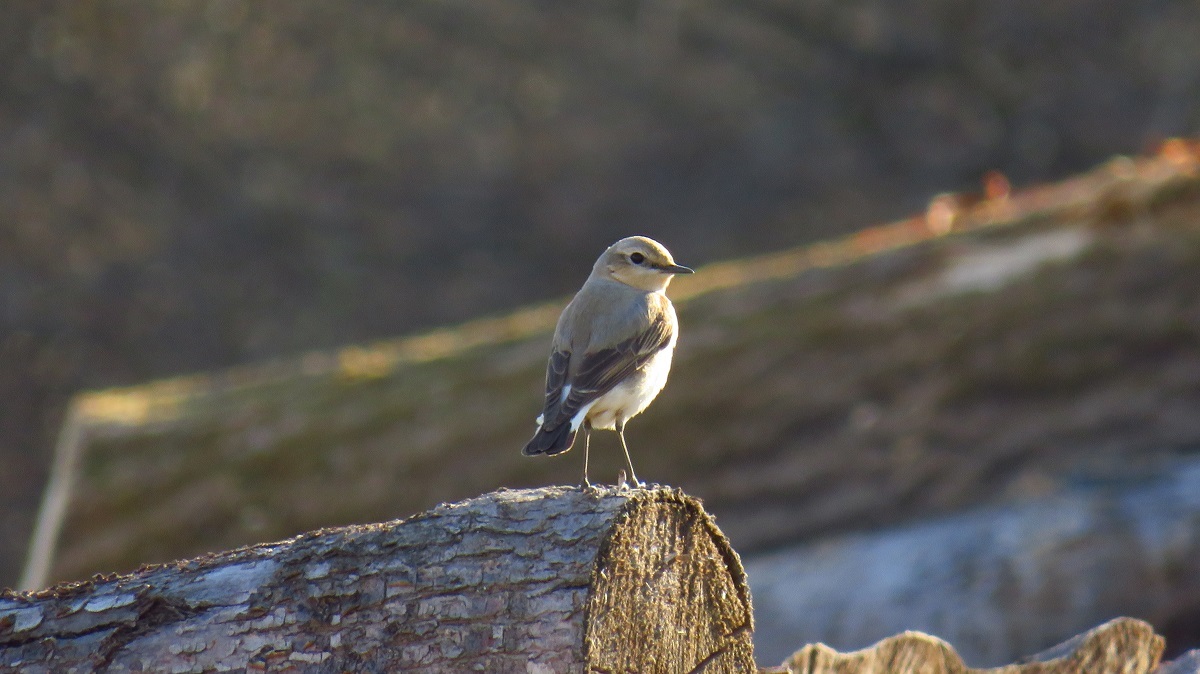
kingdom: Animalia
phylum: Chordata
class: Aves
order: Passeriformes
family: Muscicapidae
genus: Oenanthe
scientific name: Oenanthe oenanthe
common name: Northern wheatear
